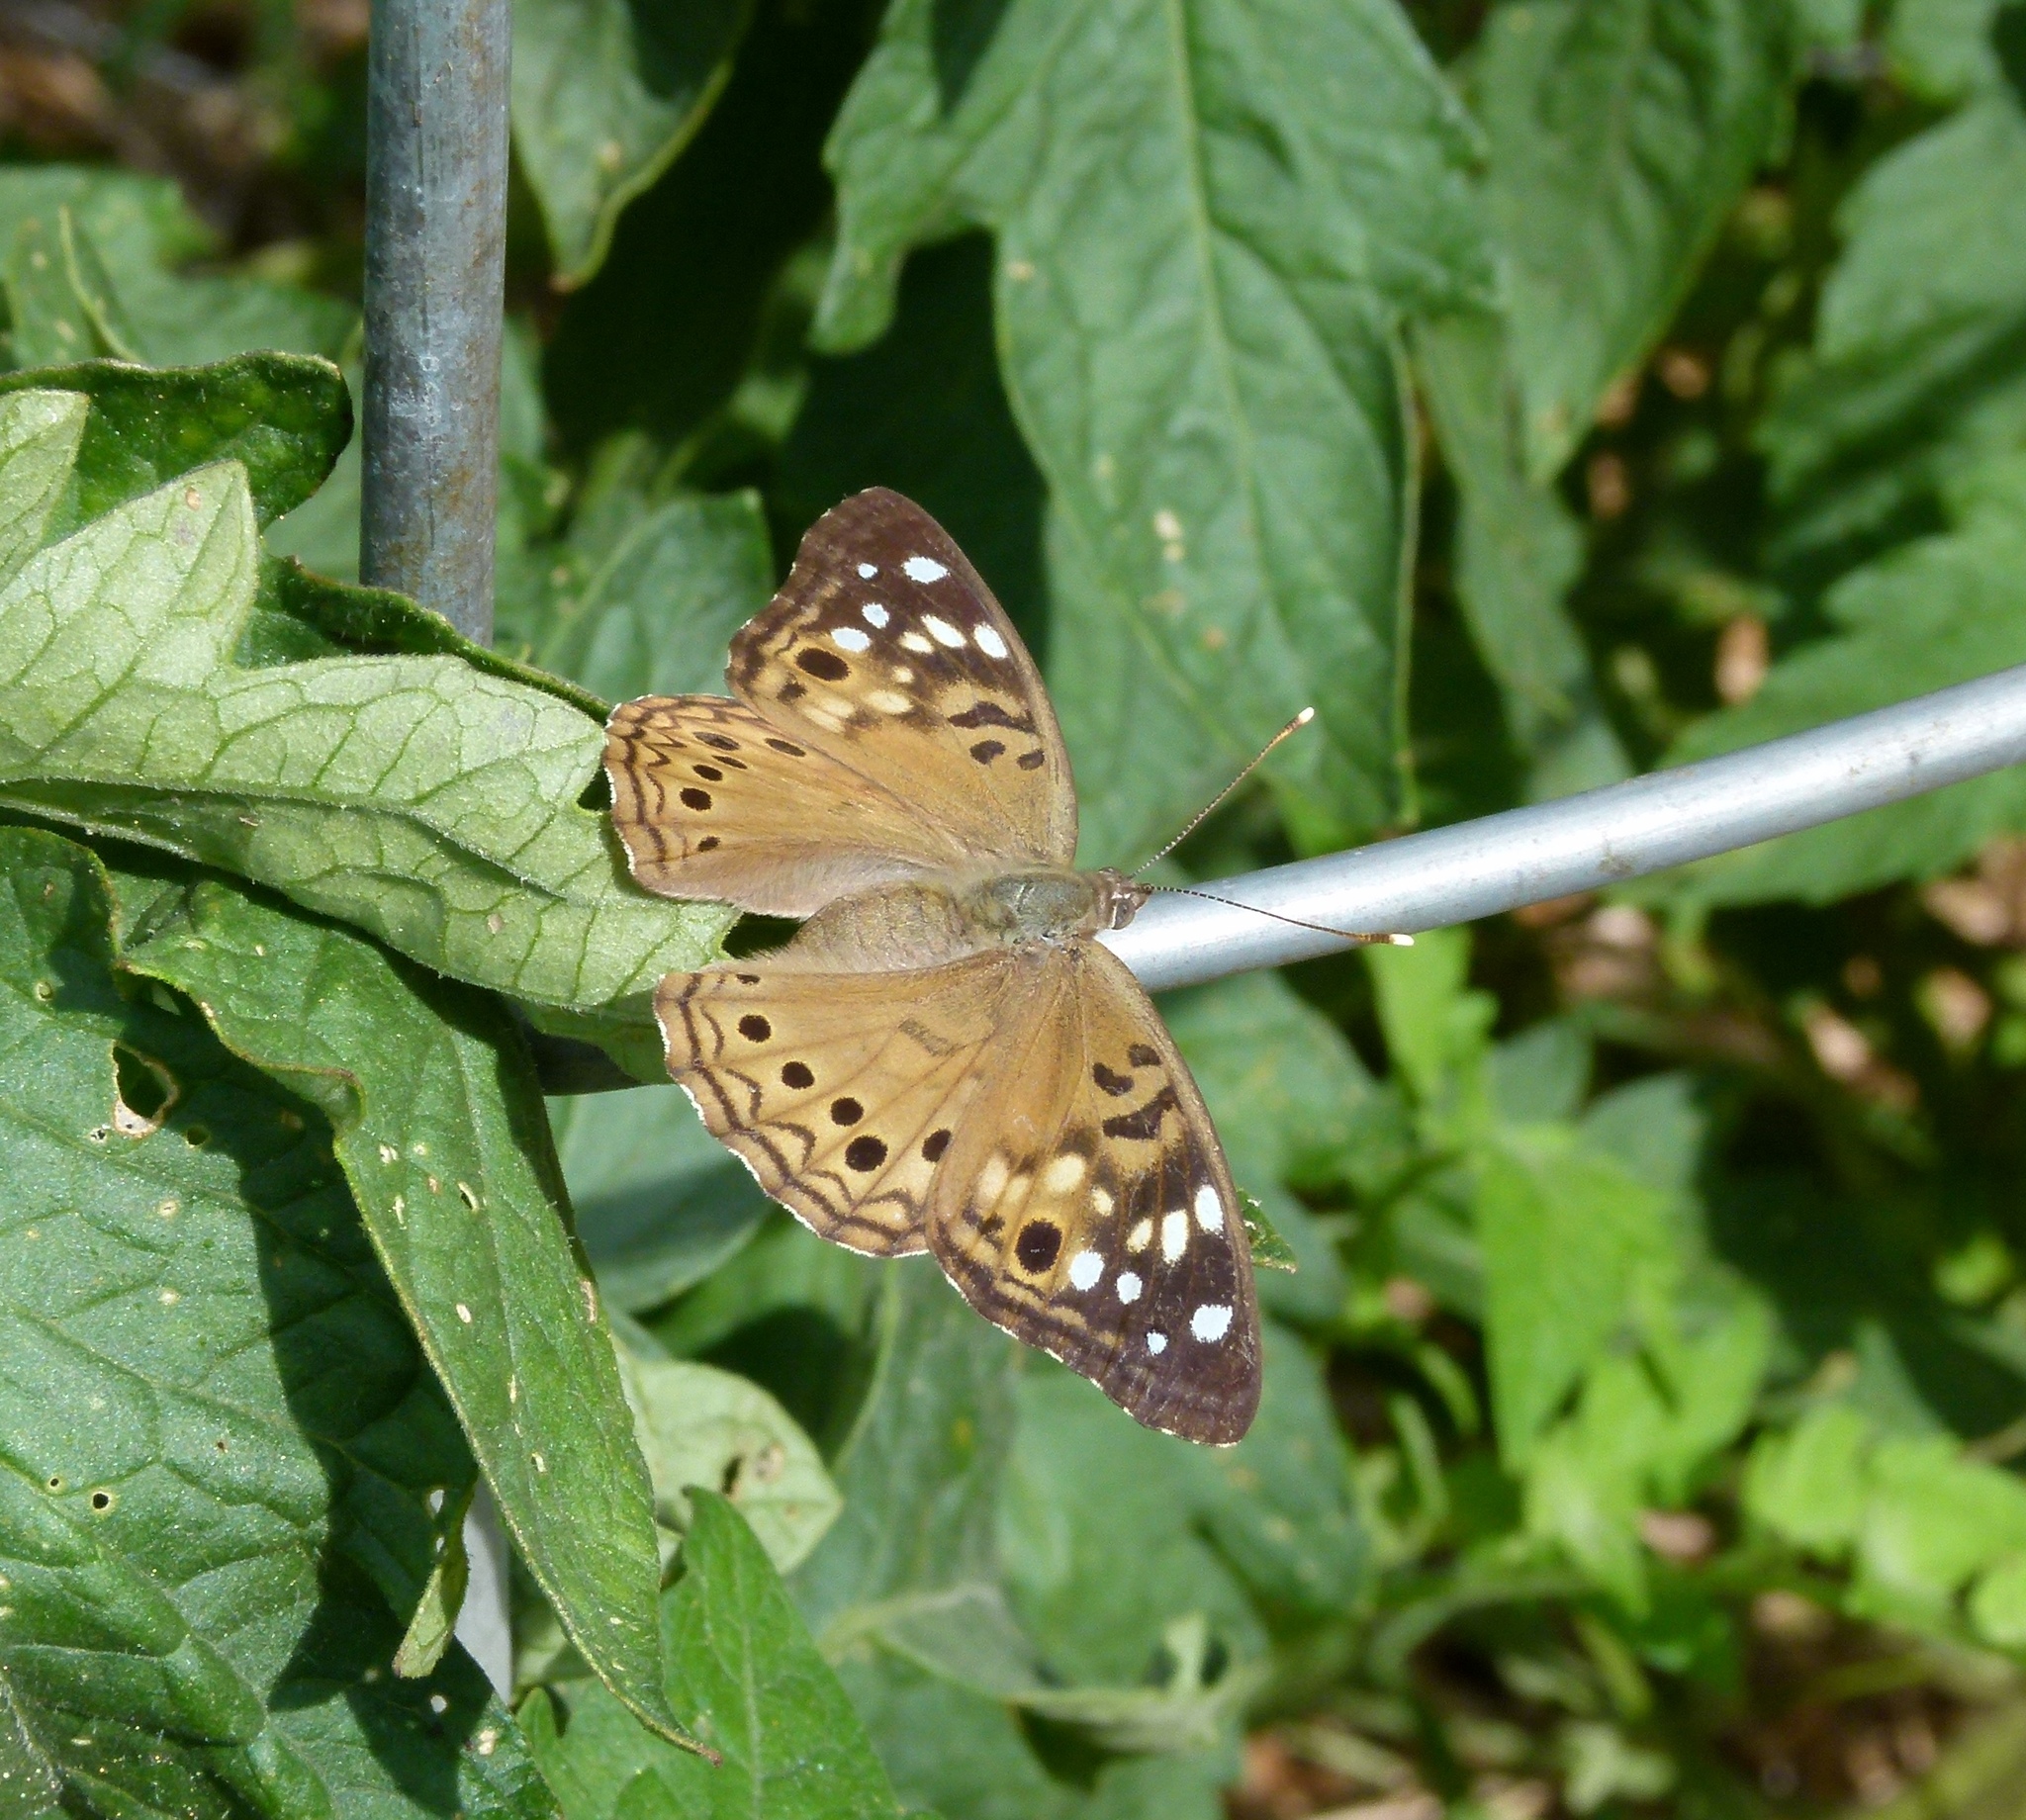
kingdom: Animalia
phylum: Arthropoda
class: Insecta
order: Lepidoptera
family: Nymphalidae
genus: Asterocampa
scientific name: Asterocampa celtis
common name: Hackberry emperor
